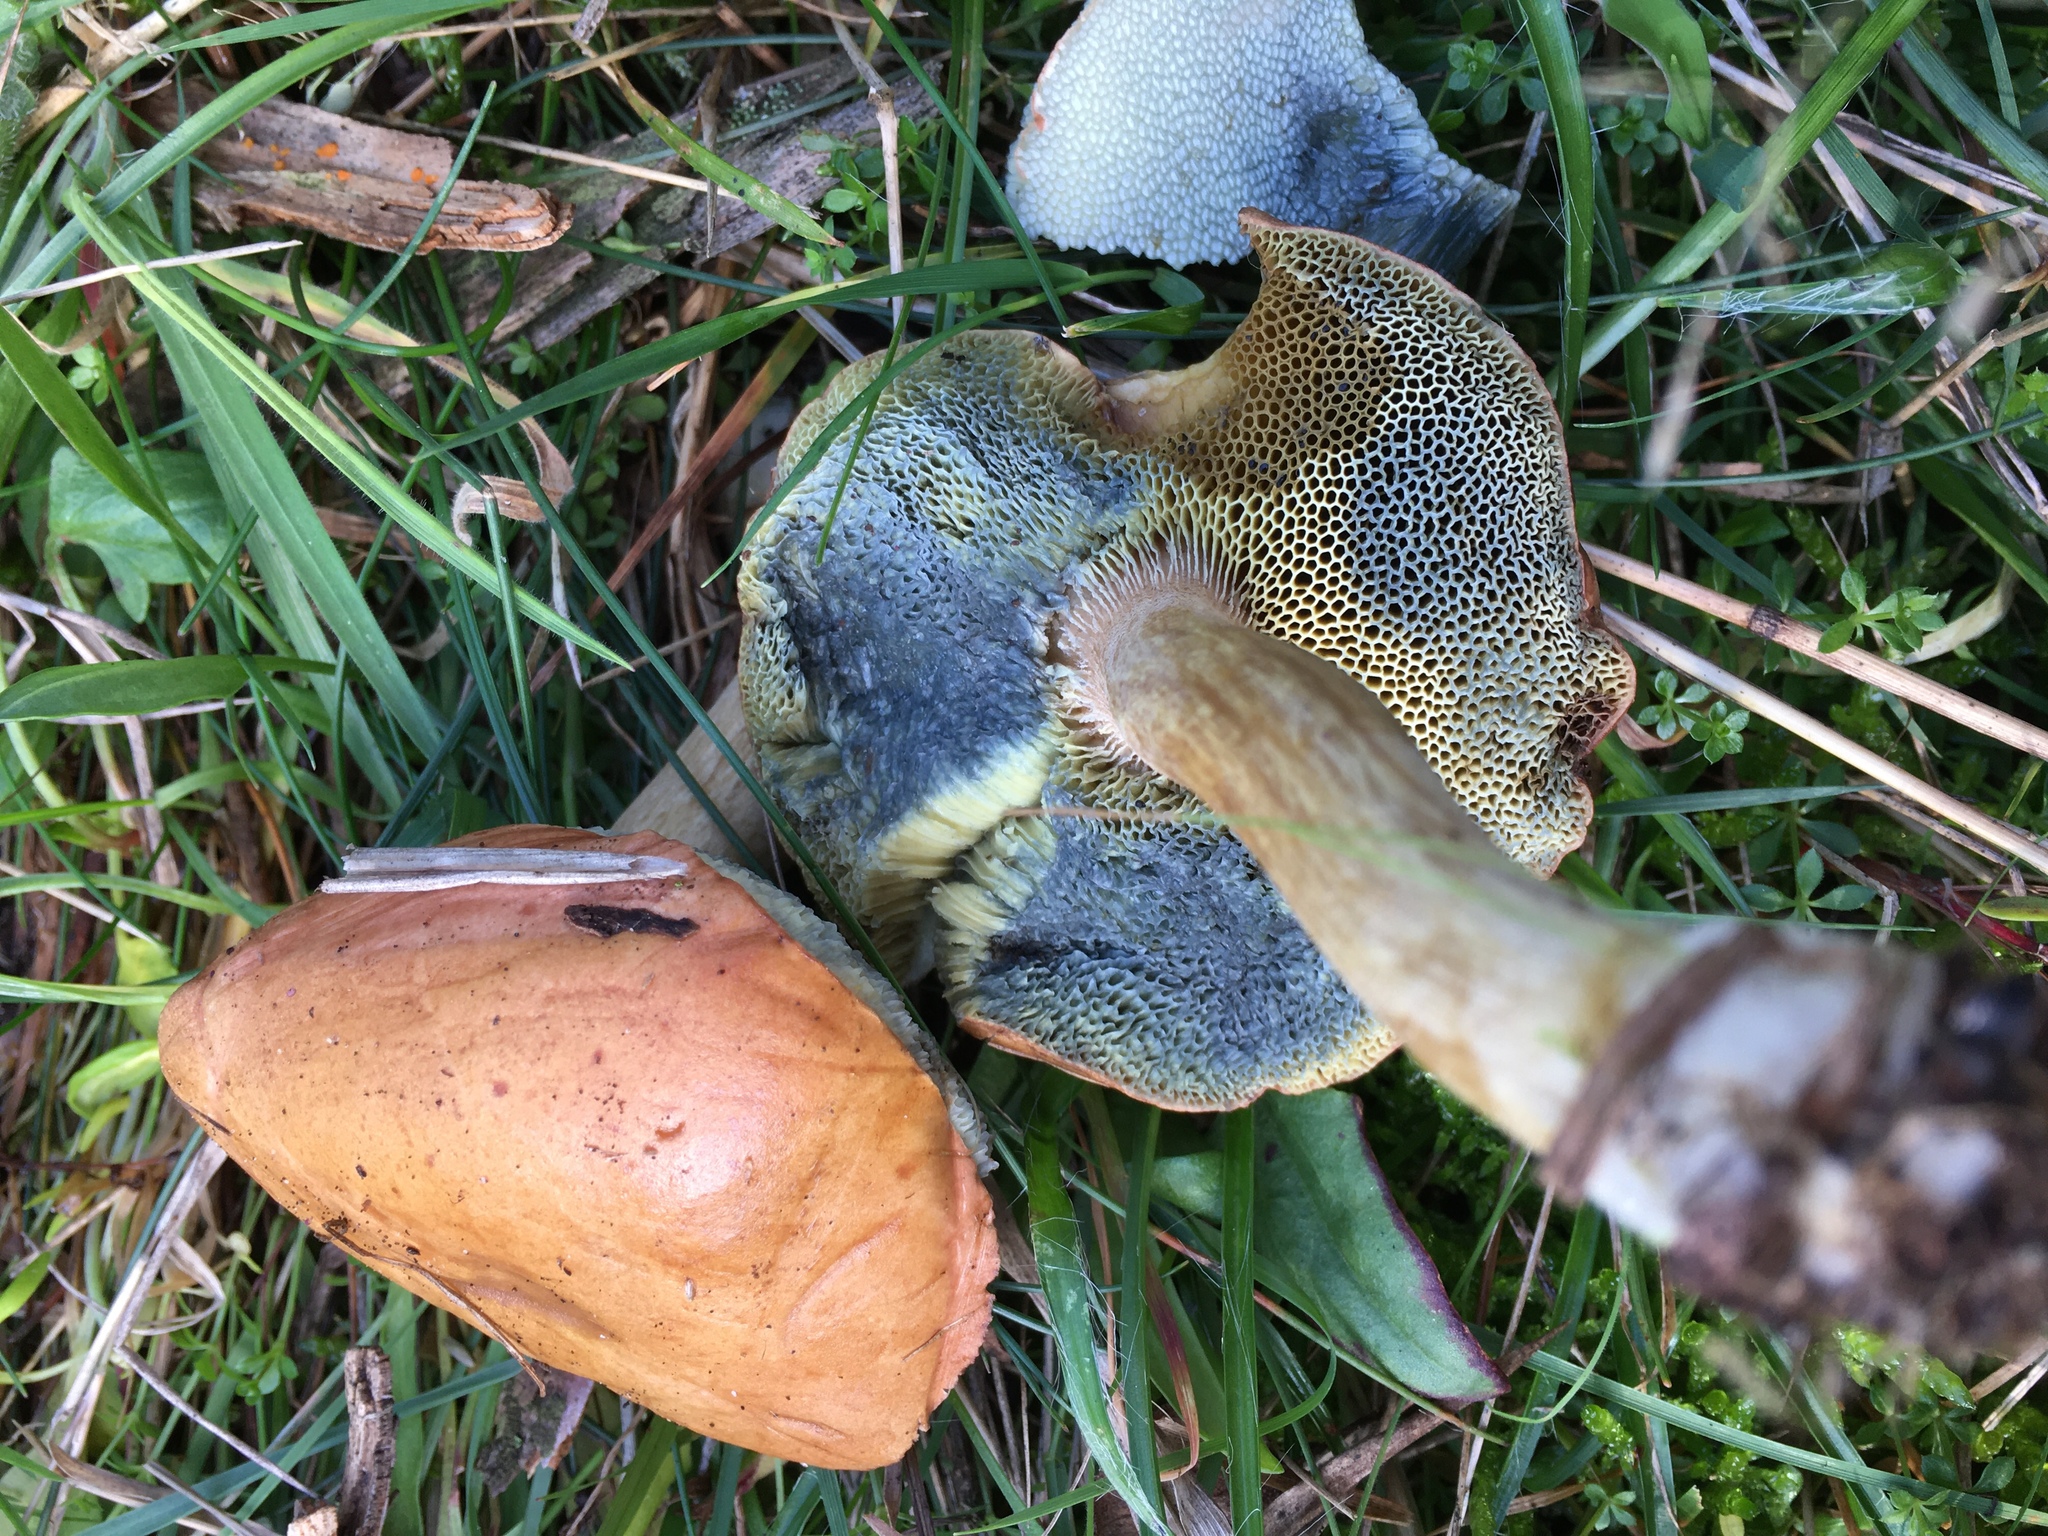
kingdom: Fungi
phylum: Basidiomycota
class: Agaricomycetes
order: Boletales
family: Boletaceae
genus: Imleria
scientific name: Imleria badia
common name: Bay bolete
